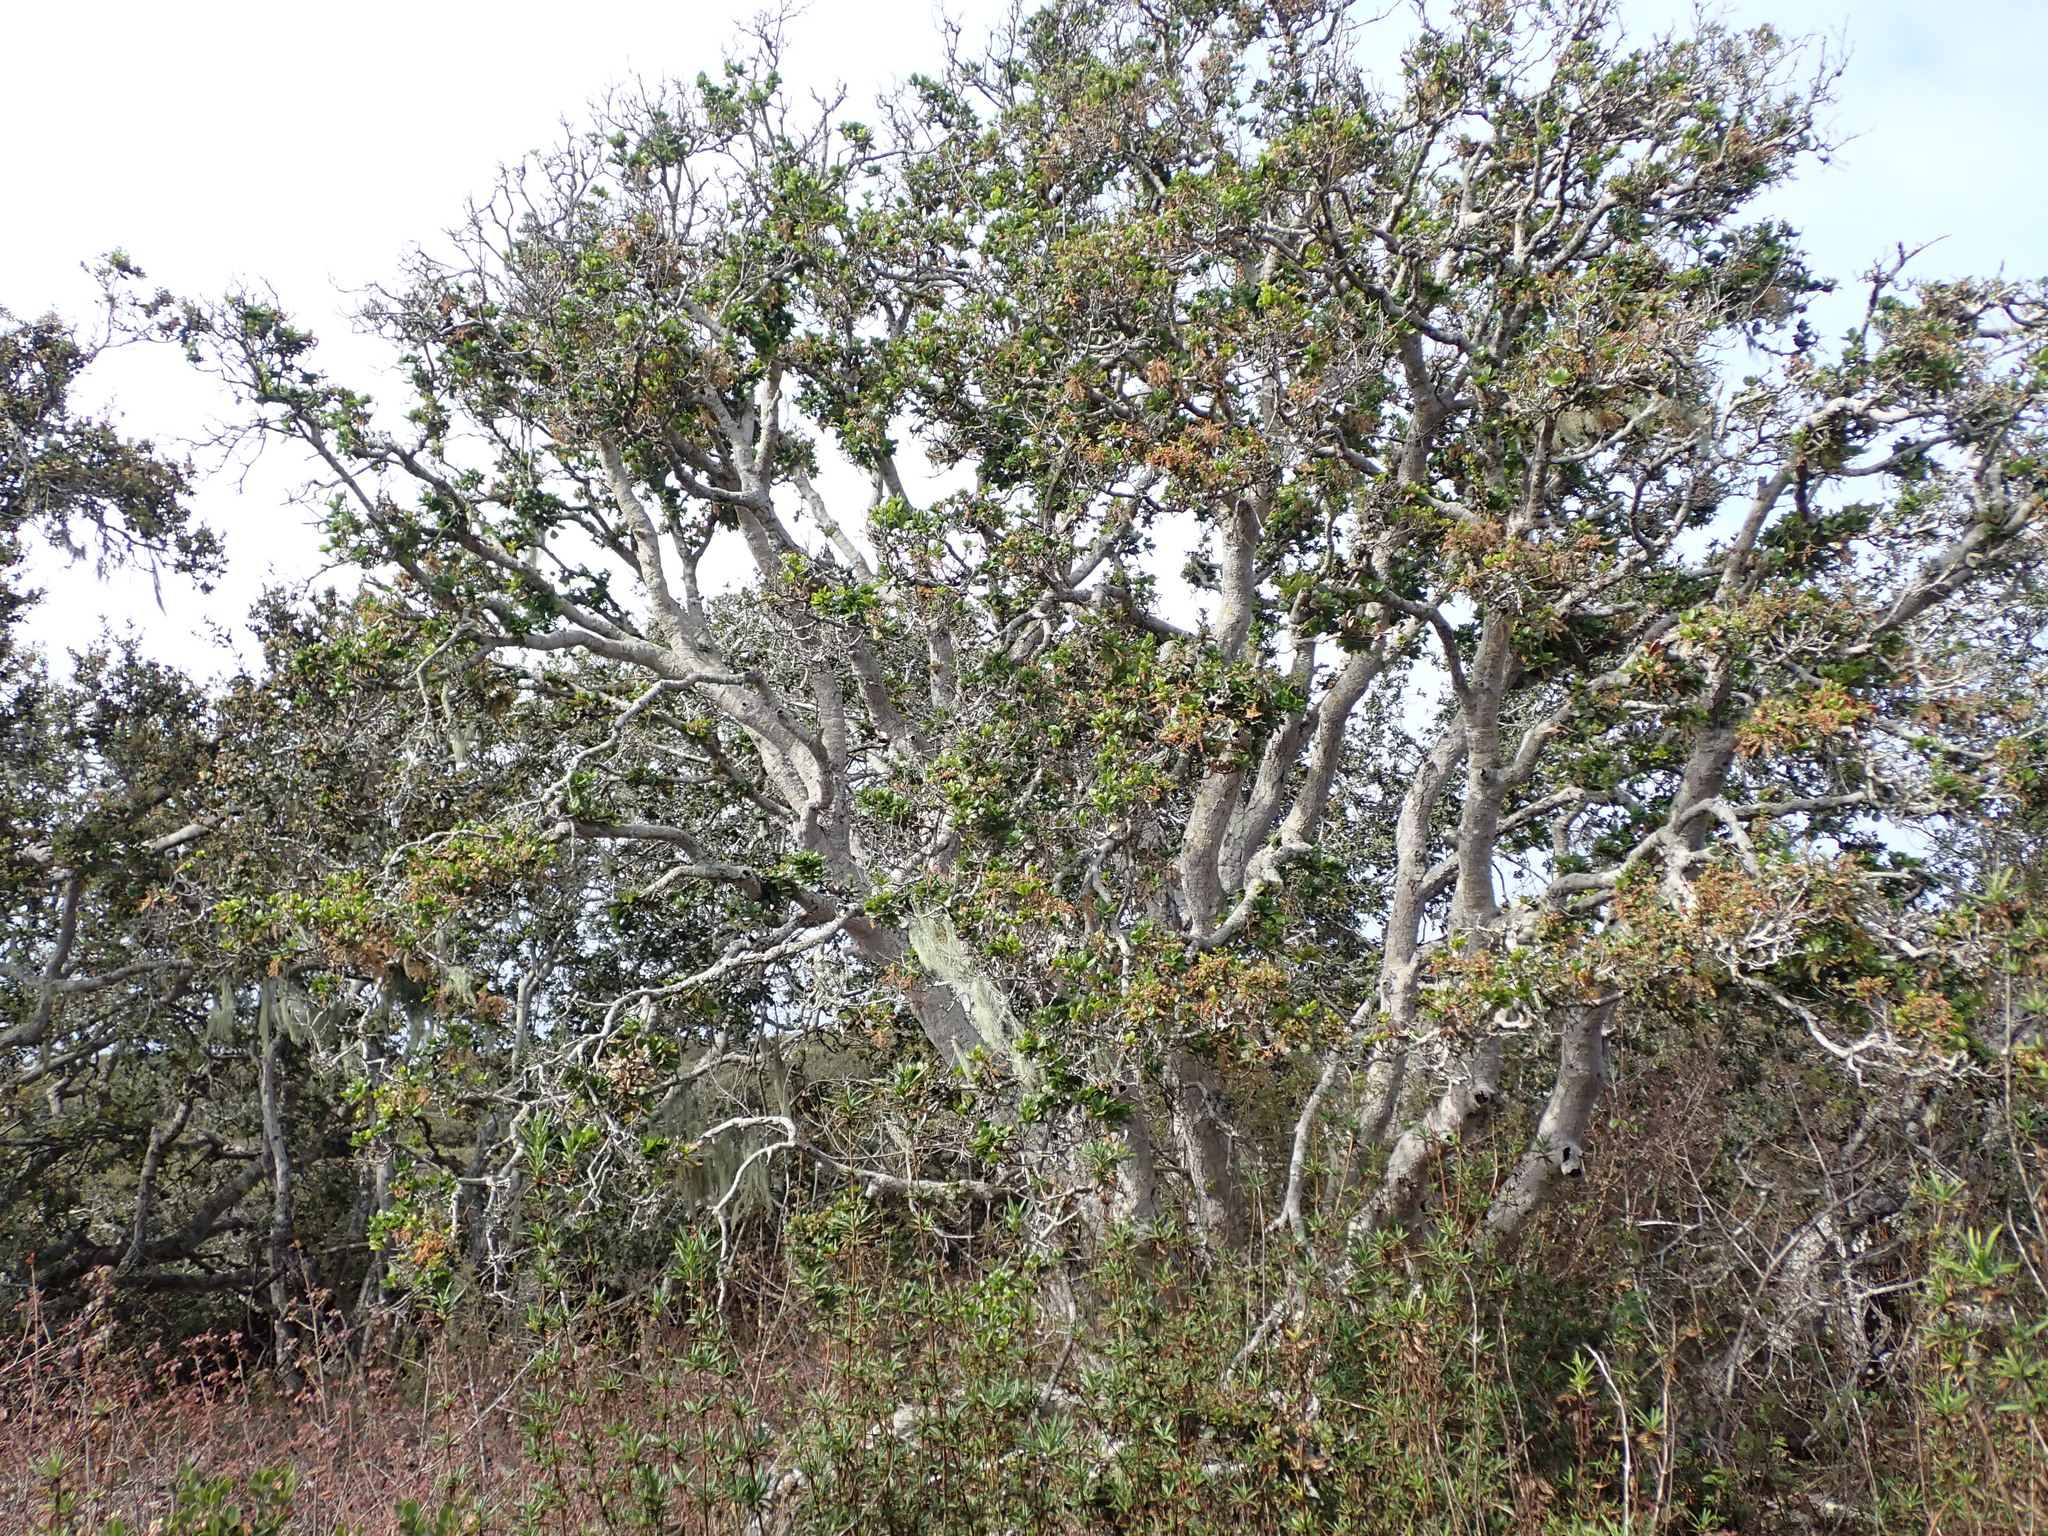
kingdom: Plantae
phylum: Tracheophyta
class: Magnoliopsida
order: Fagales
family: Fagaceae
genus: Quercus
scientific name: Quercus agrifolia
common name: California live oak
